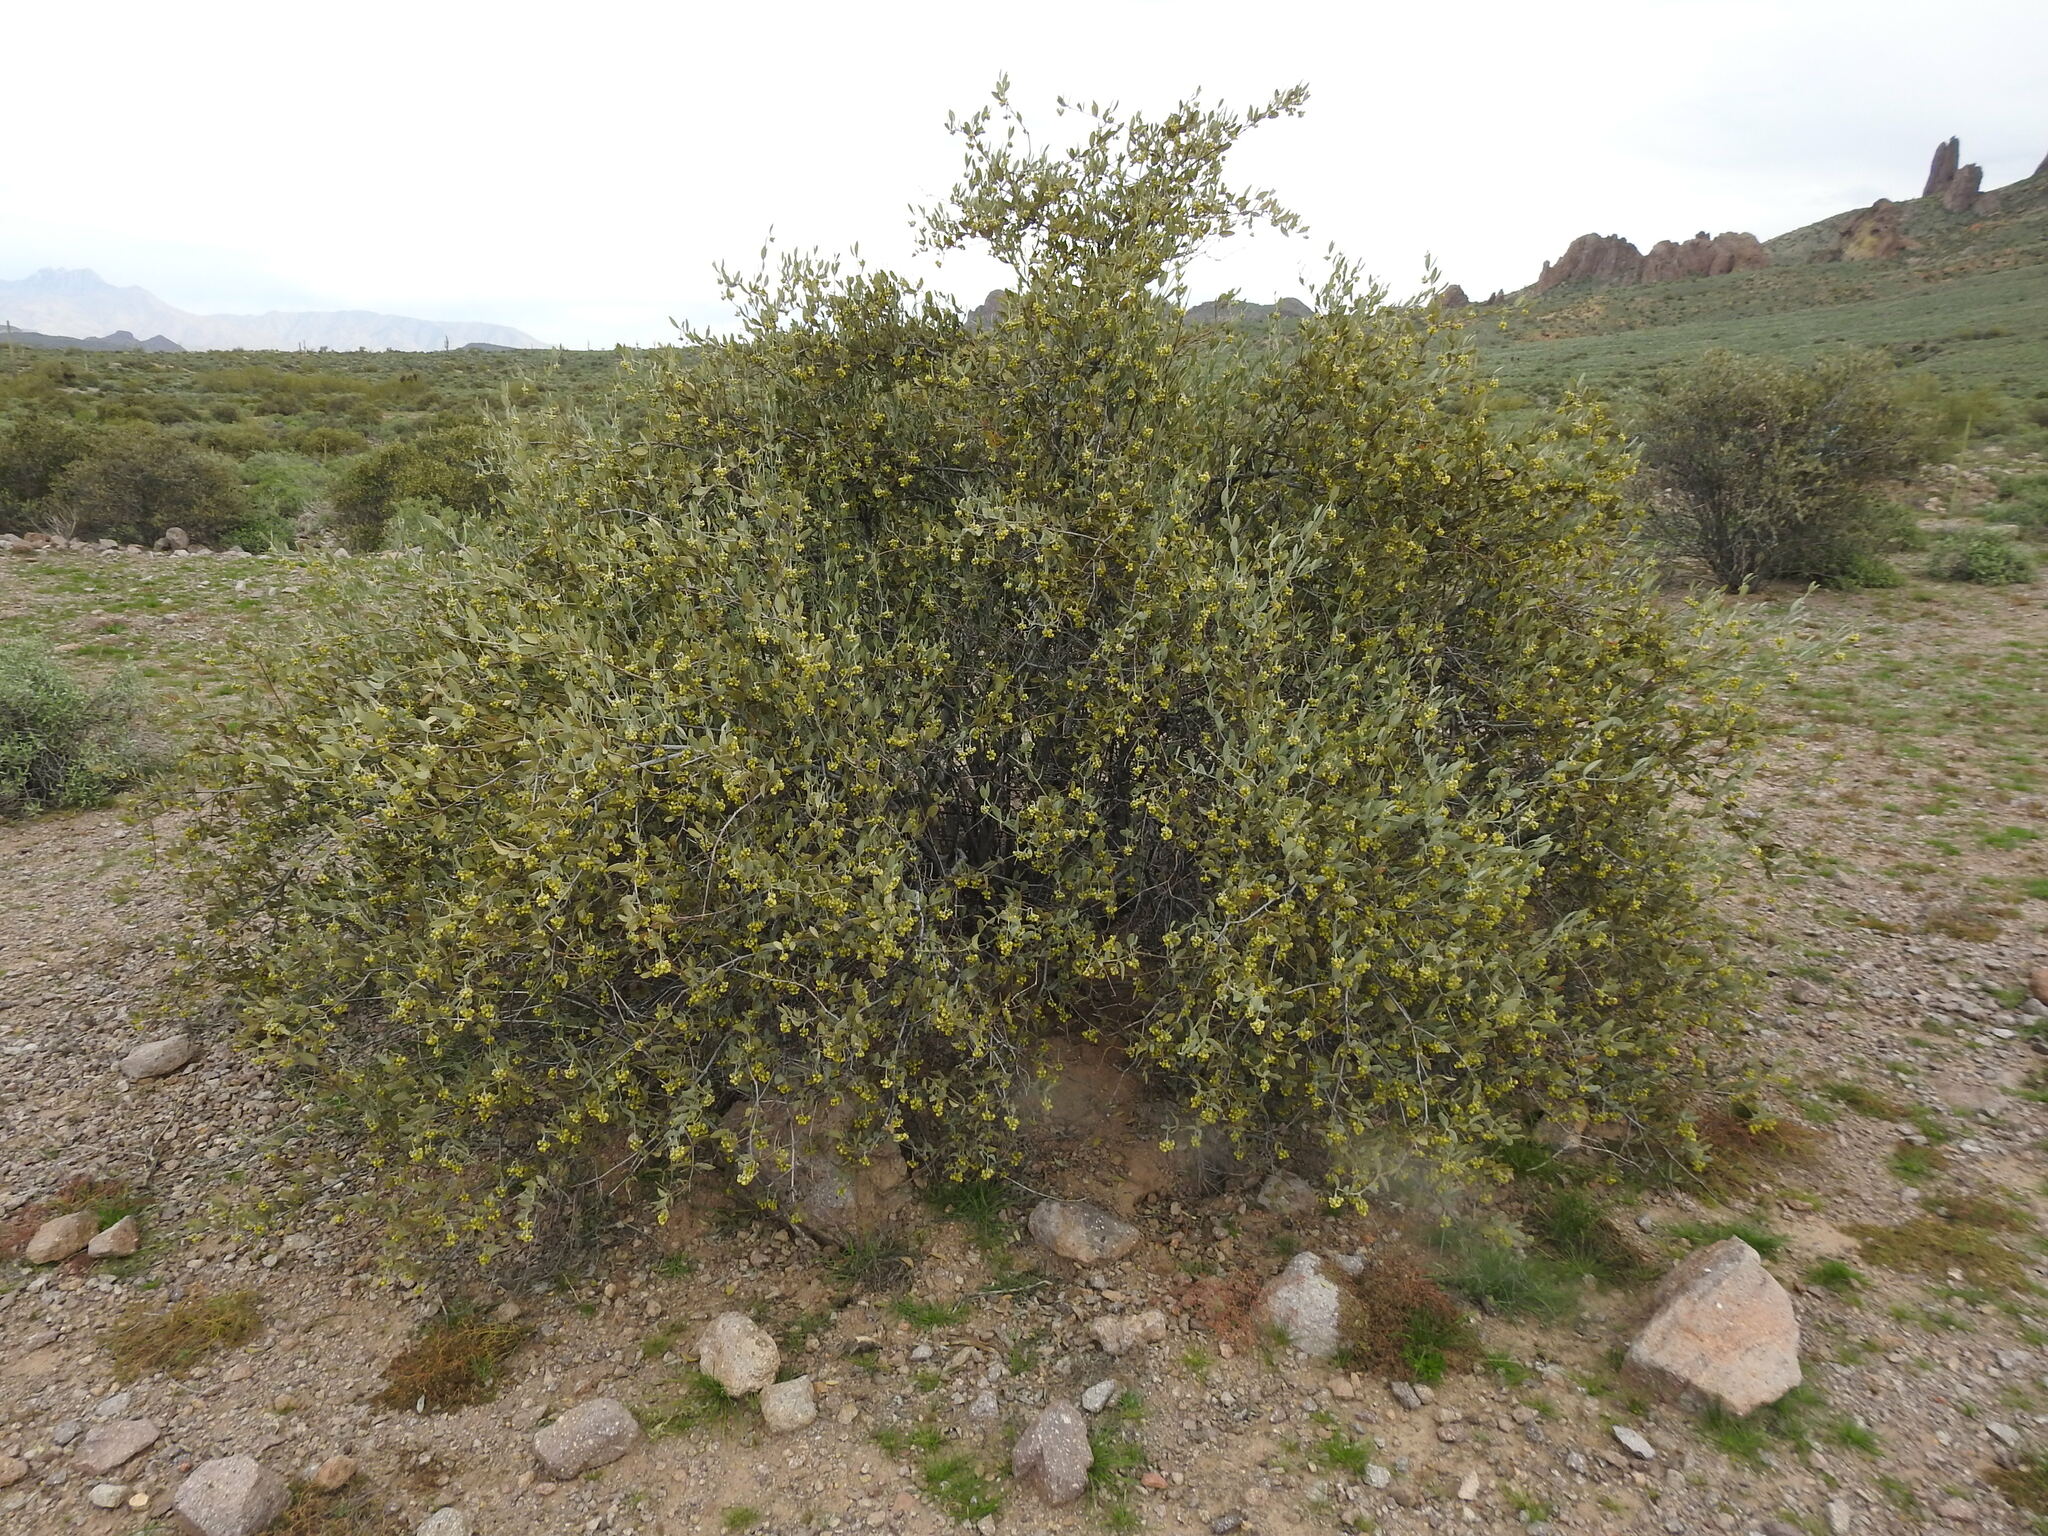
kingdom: Plantae
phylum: Tracheophyta
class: Magnoliopsida
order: Caryophyllales
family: Simmondsiaceae
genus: Simmondsia
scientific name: Simmondsia chinensis
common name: Jojoba
